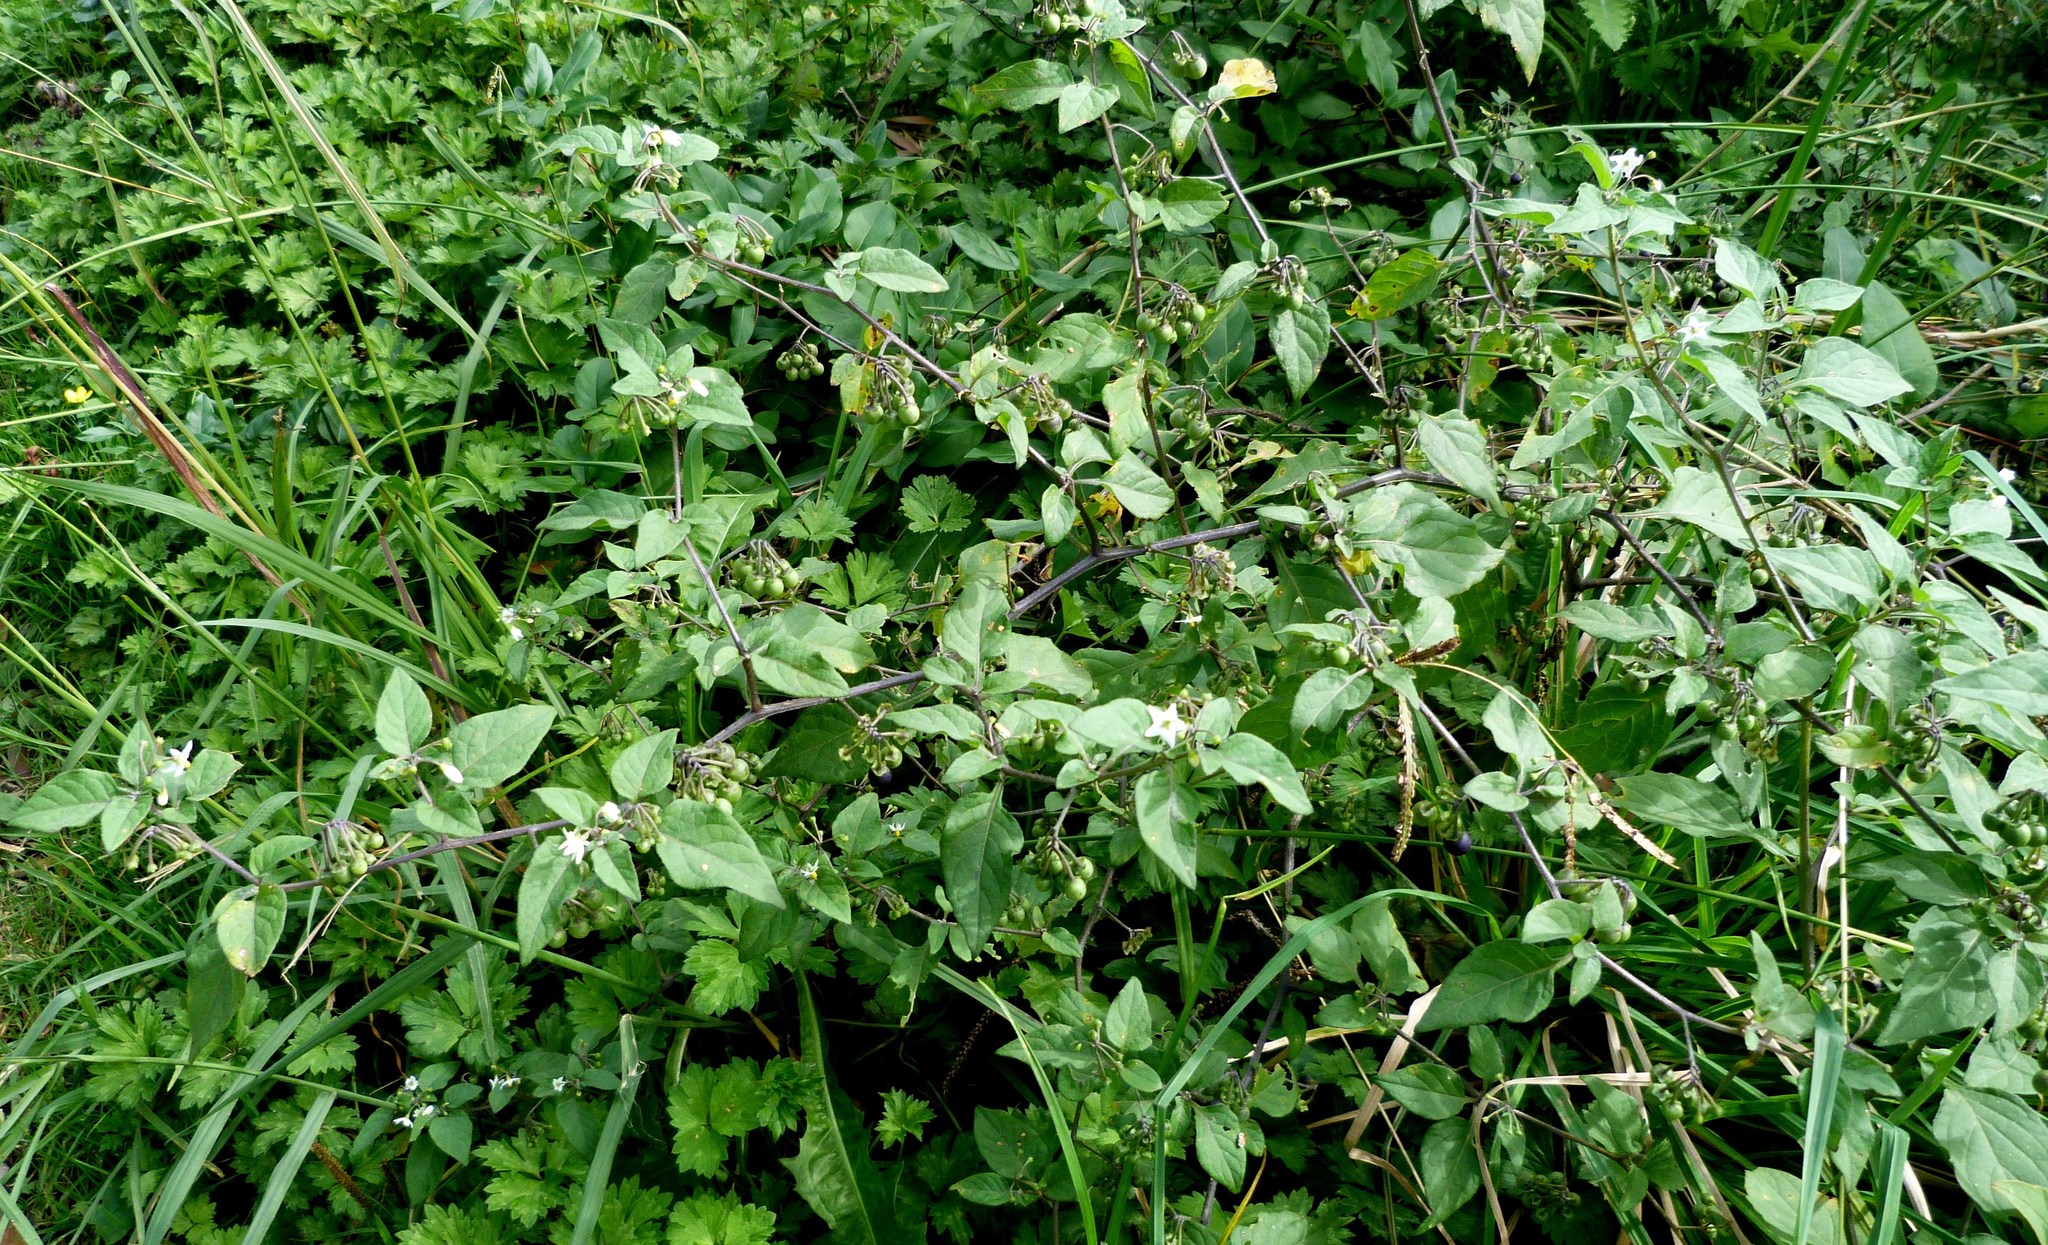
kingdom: Plantae
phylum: Tracheophyta
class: Magnoliopsida
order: Solanales
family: Solanaceae
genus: Solanum
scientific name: Solanum nigrum
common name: Black nightshade
